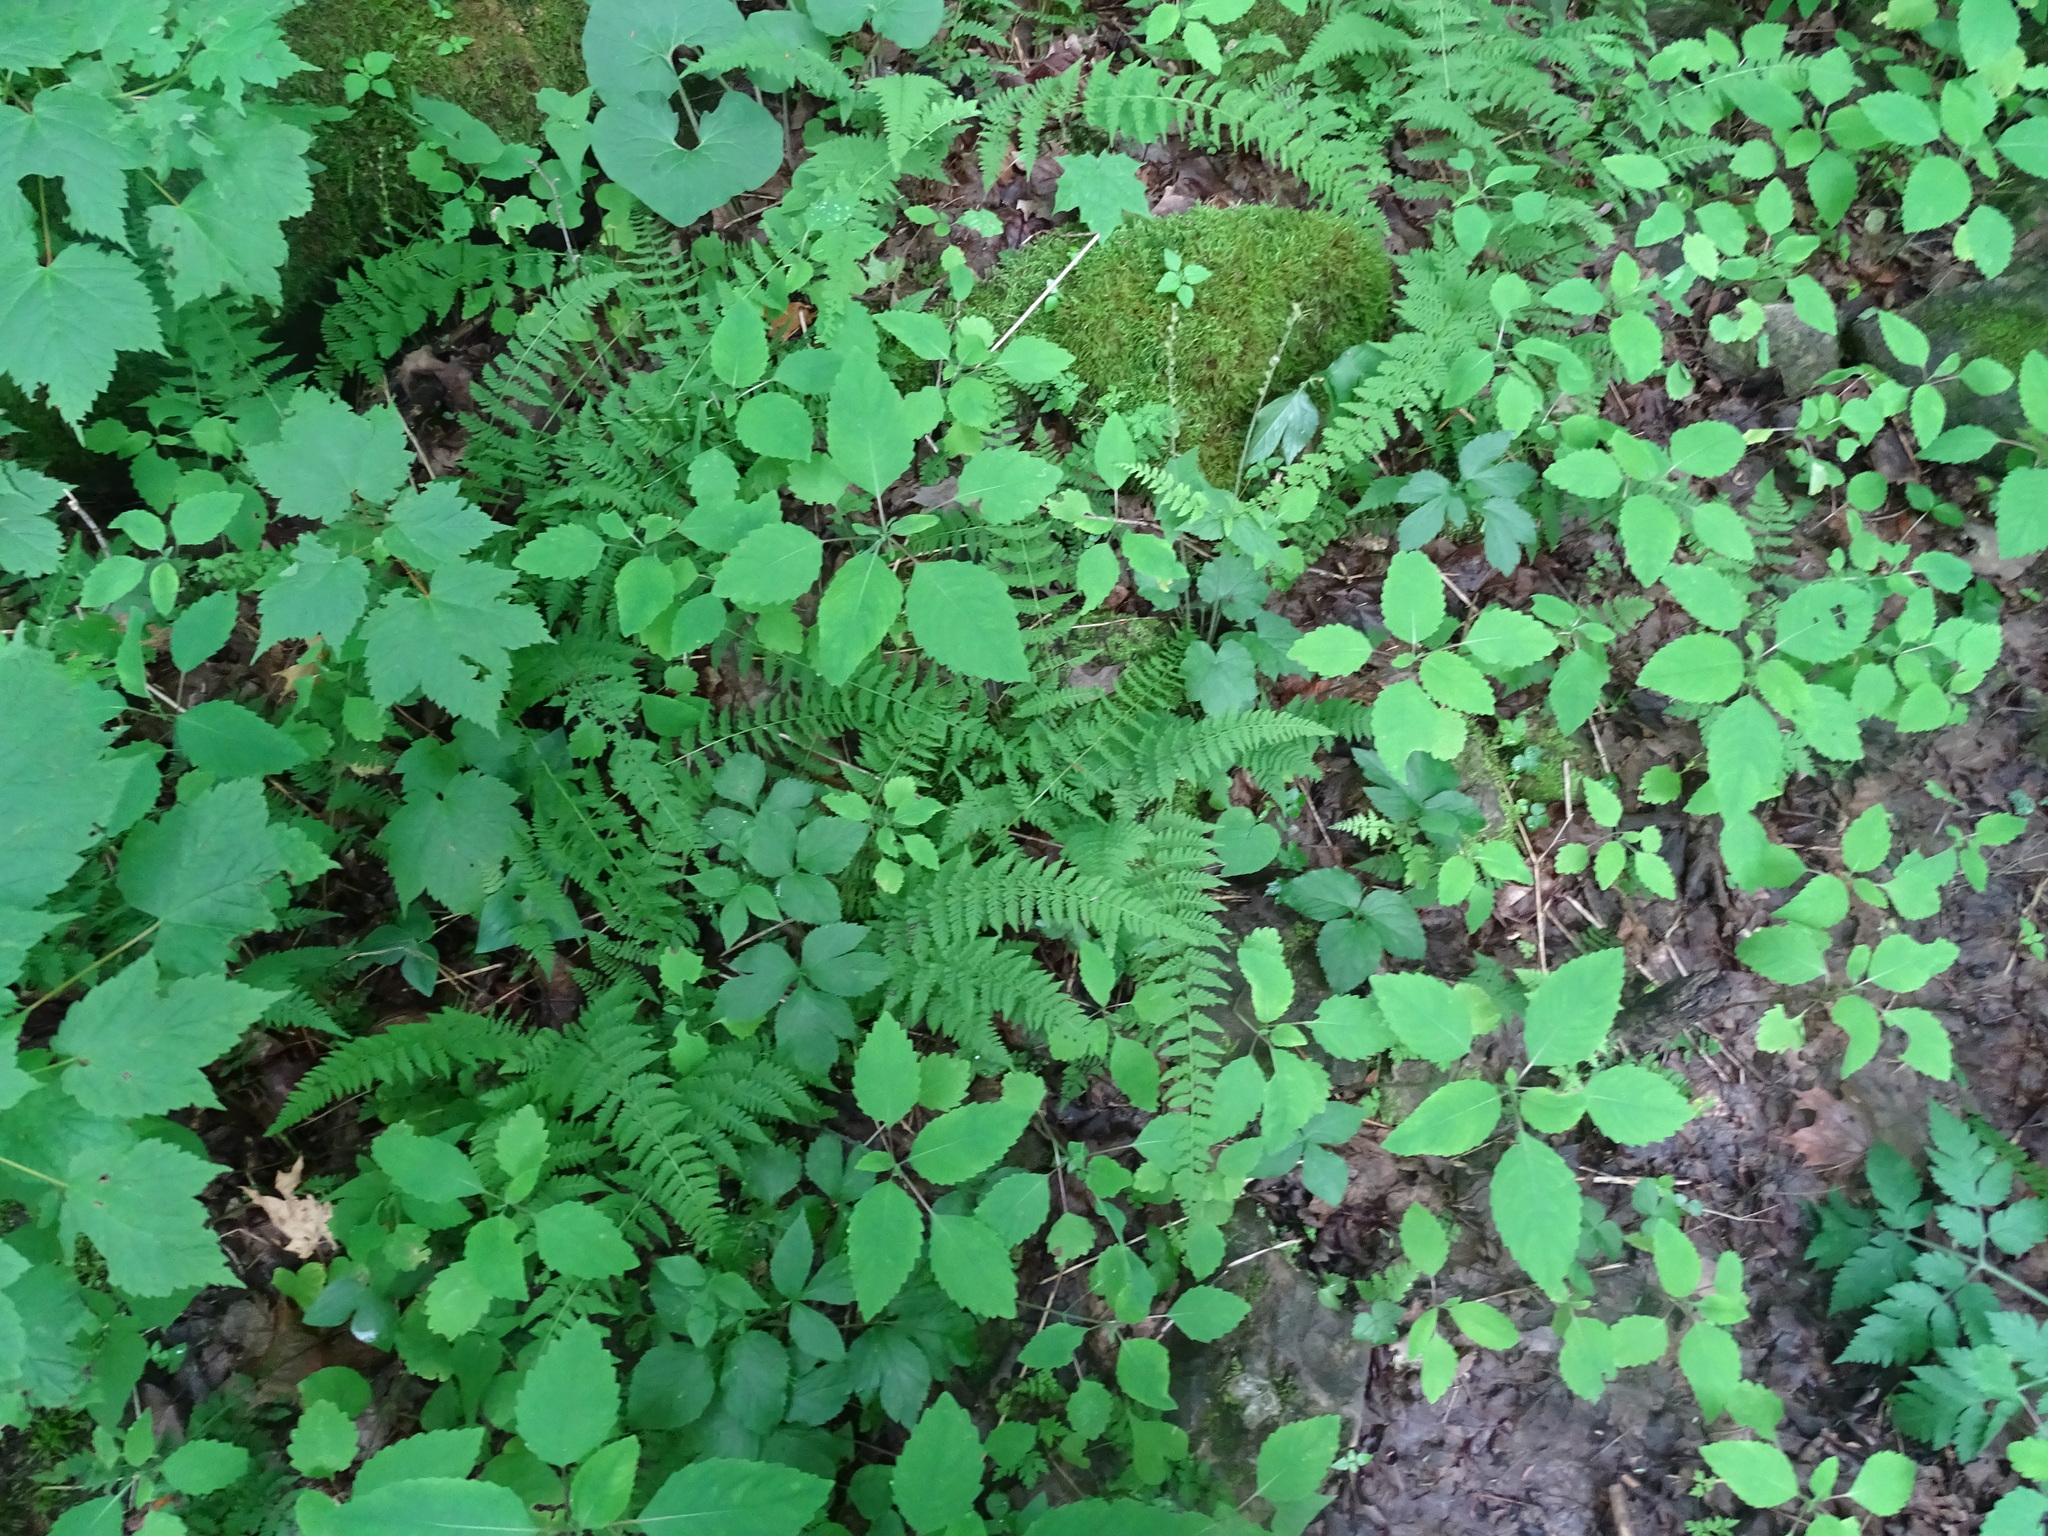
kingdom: Plantae
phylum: Tracheophyta
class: Polypodiopsida
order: Polypodiales
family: Cystopteridaceae
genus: Cystopteris
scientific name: Cystopteris bulbifera
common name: Bulblet bladder fern
